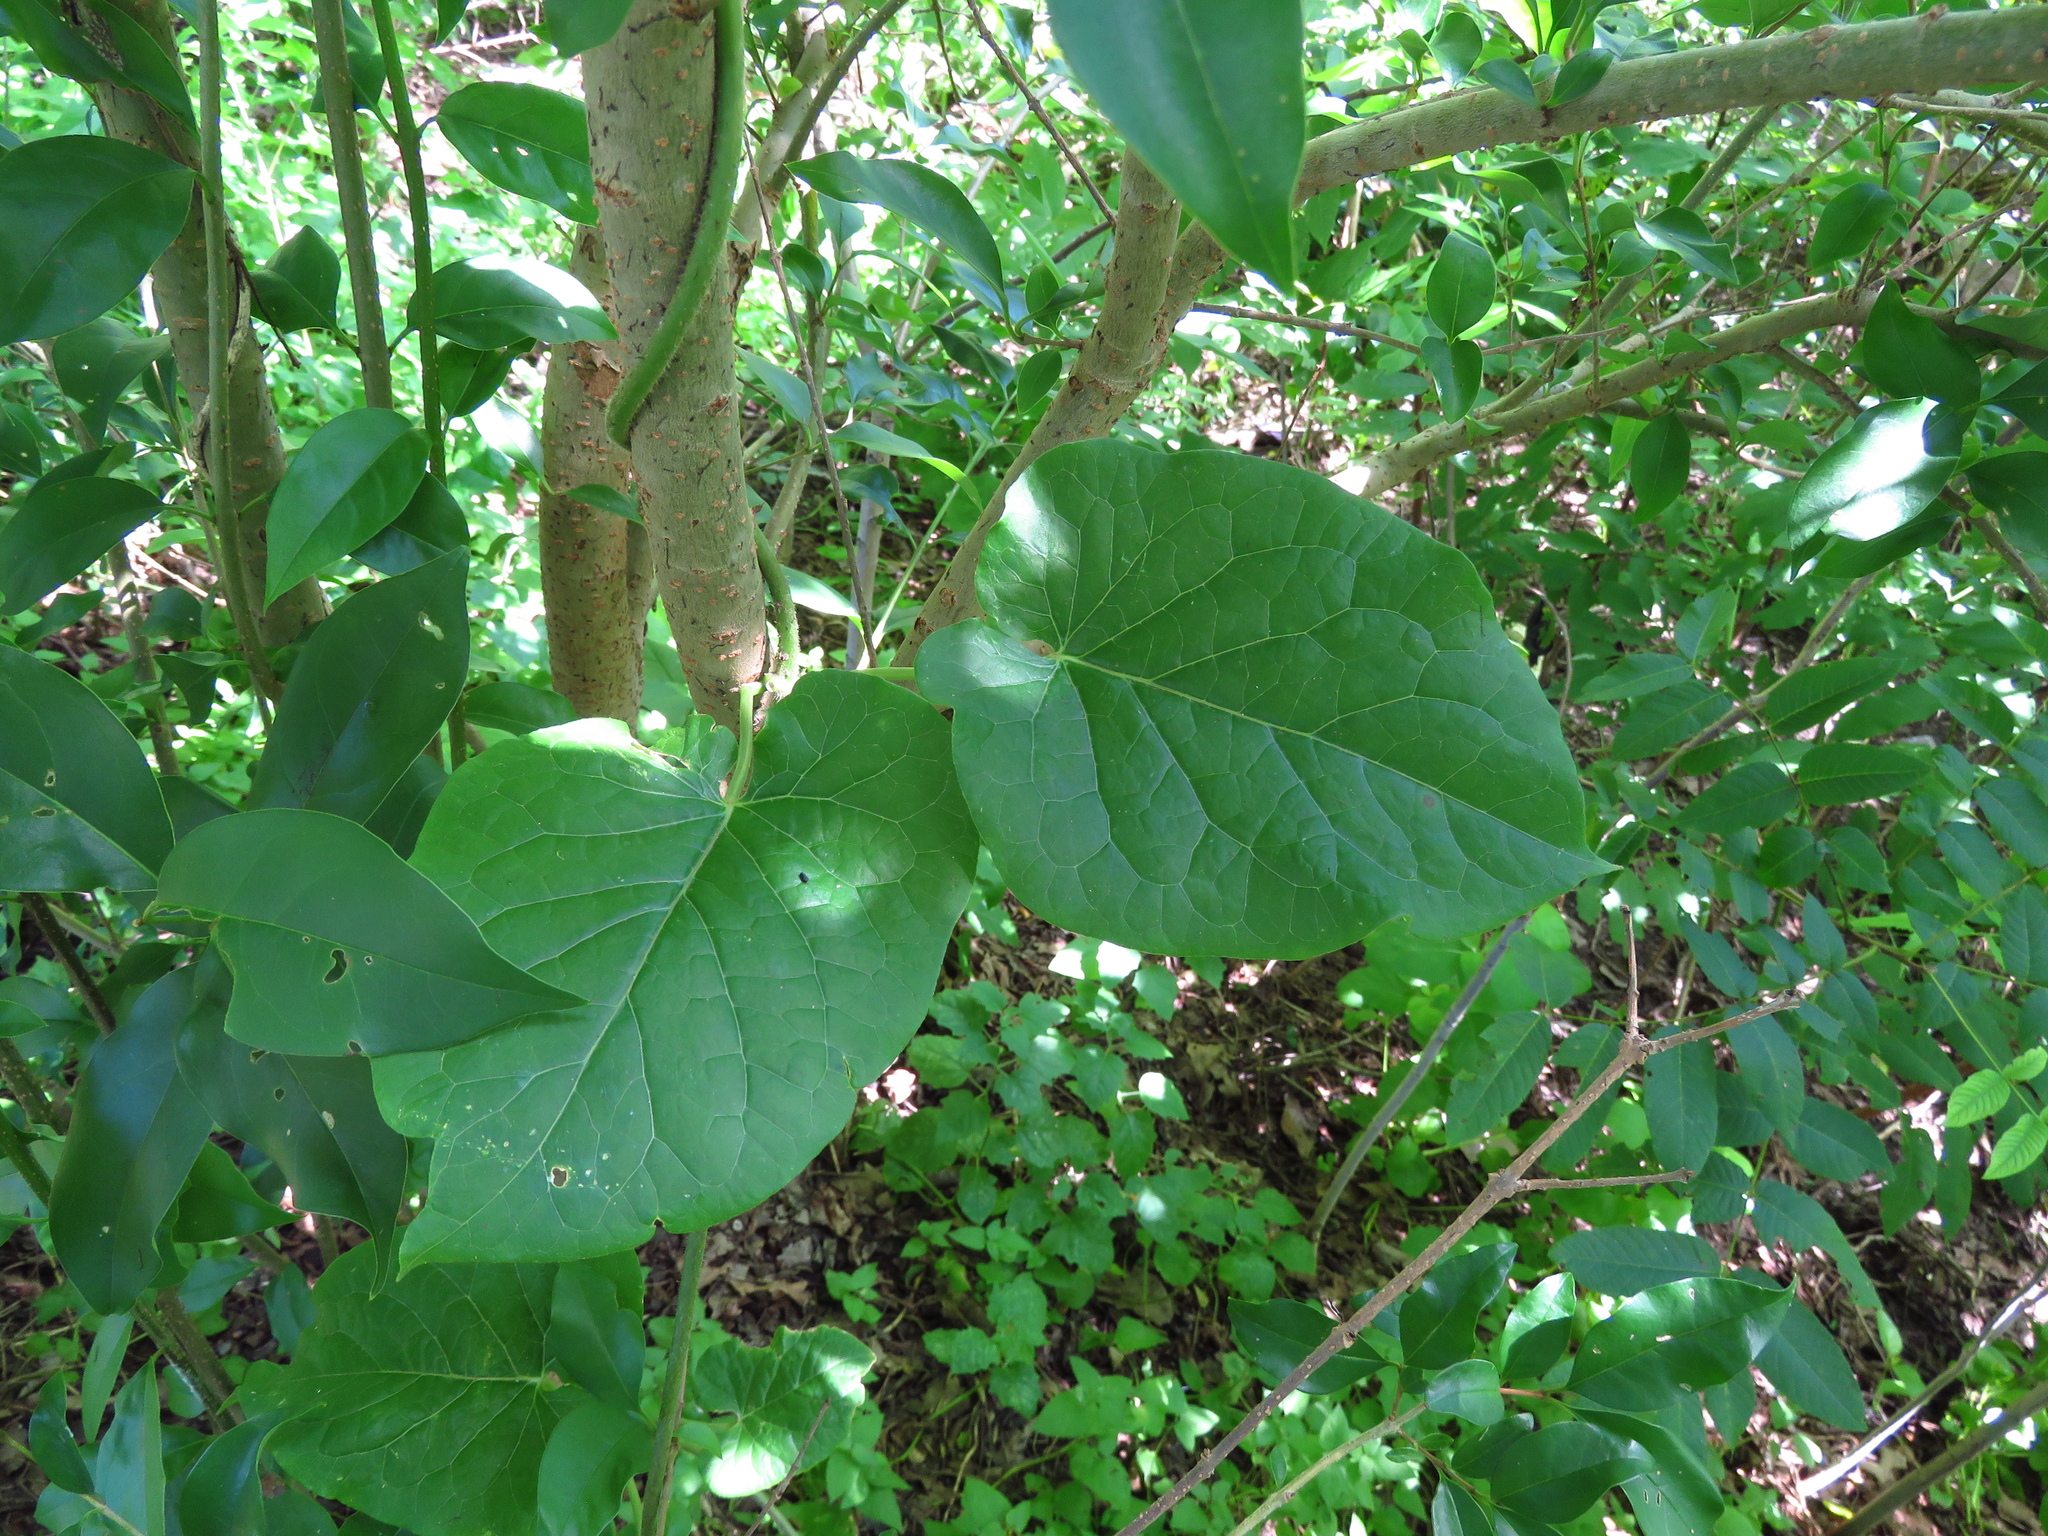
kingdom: Plantae
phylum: Tracheophyta
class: Magnoliopsida
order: Gentianales
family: Apocynaceae
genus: Gonolobus
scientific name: Gonolobus suberosus
